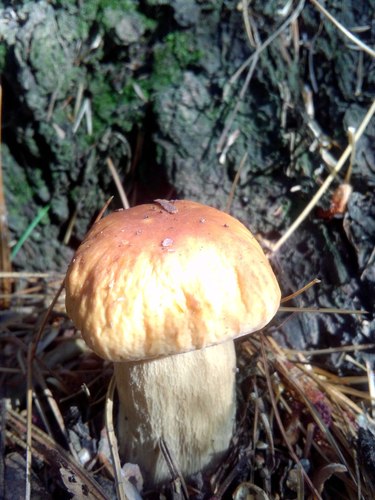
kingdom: Fungi
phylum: Basidiomycota
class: Agaricomycetes
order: Boletales
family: Boletaceae
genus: Boletus
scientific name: Boletus edulis
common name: Cep
